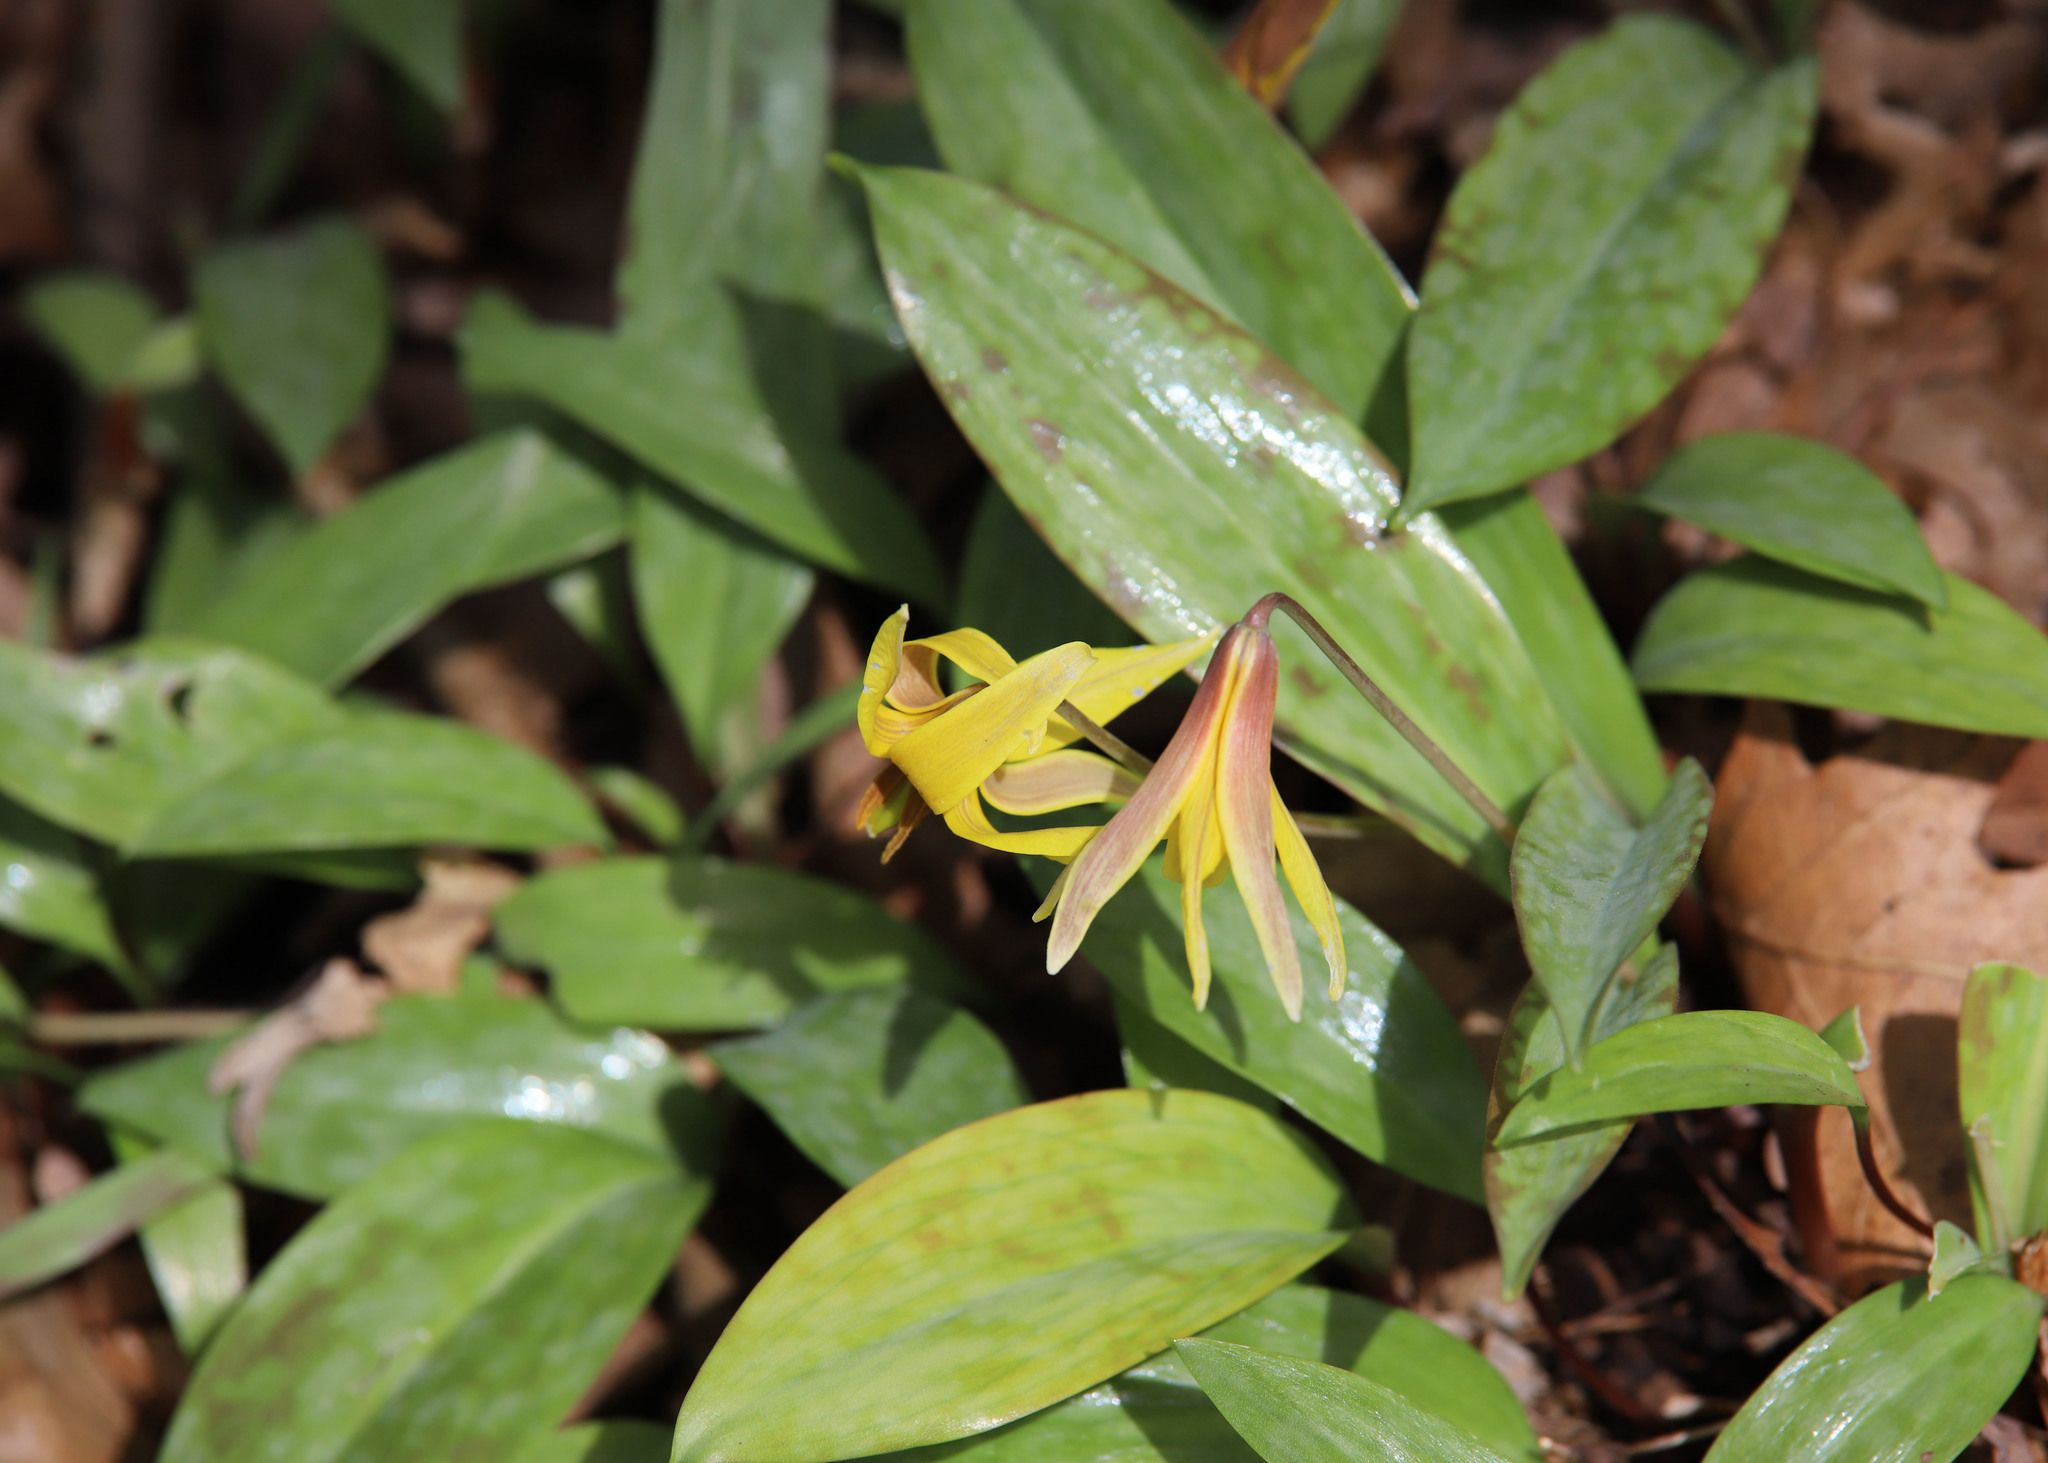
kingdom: Plantae
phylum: Tracheophyta
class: Liliopsida
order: Liliales
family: Liliaceae
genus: Erythronium
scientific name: Erythronium americanum
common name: Yellow adder's-tongue
